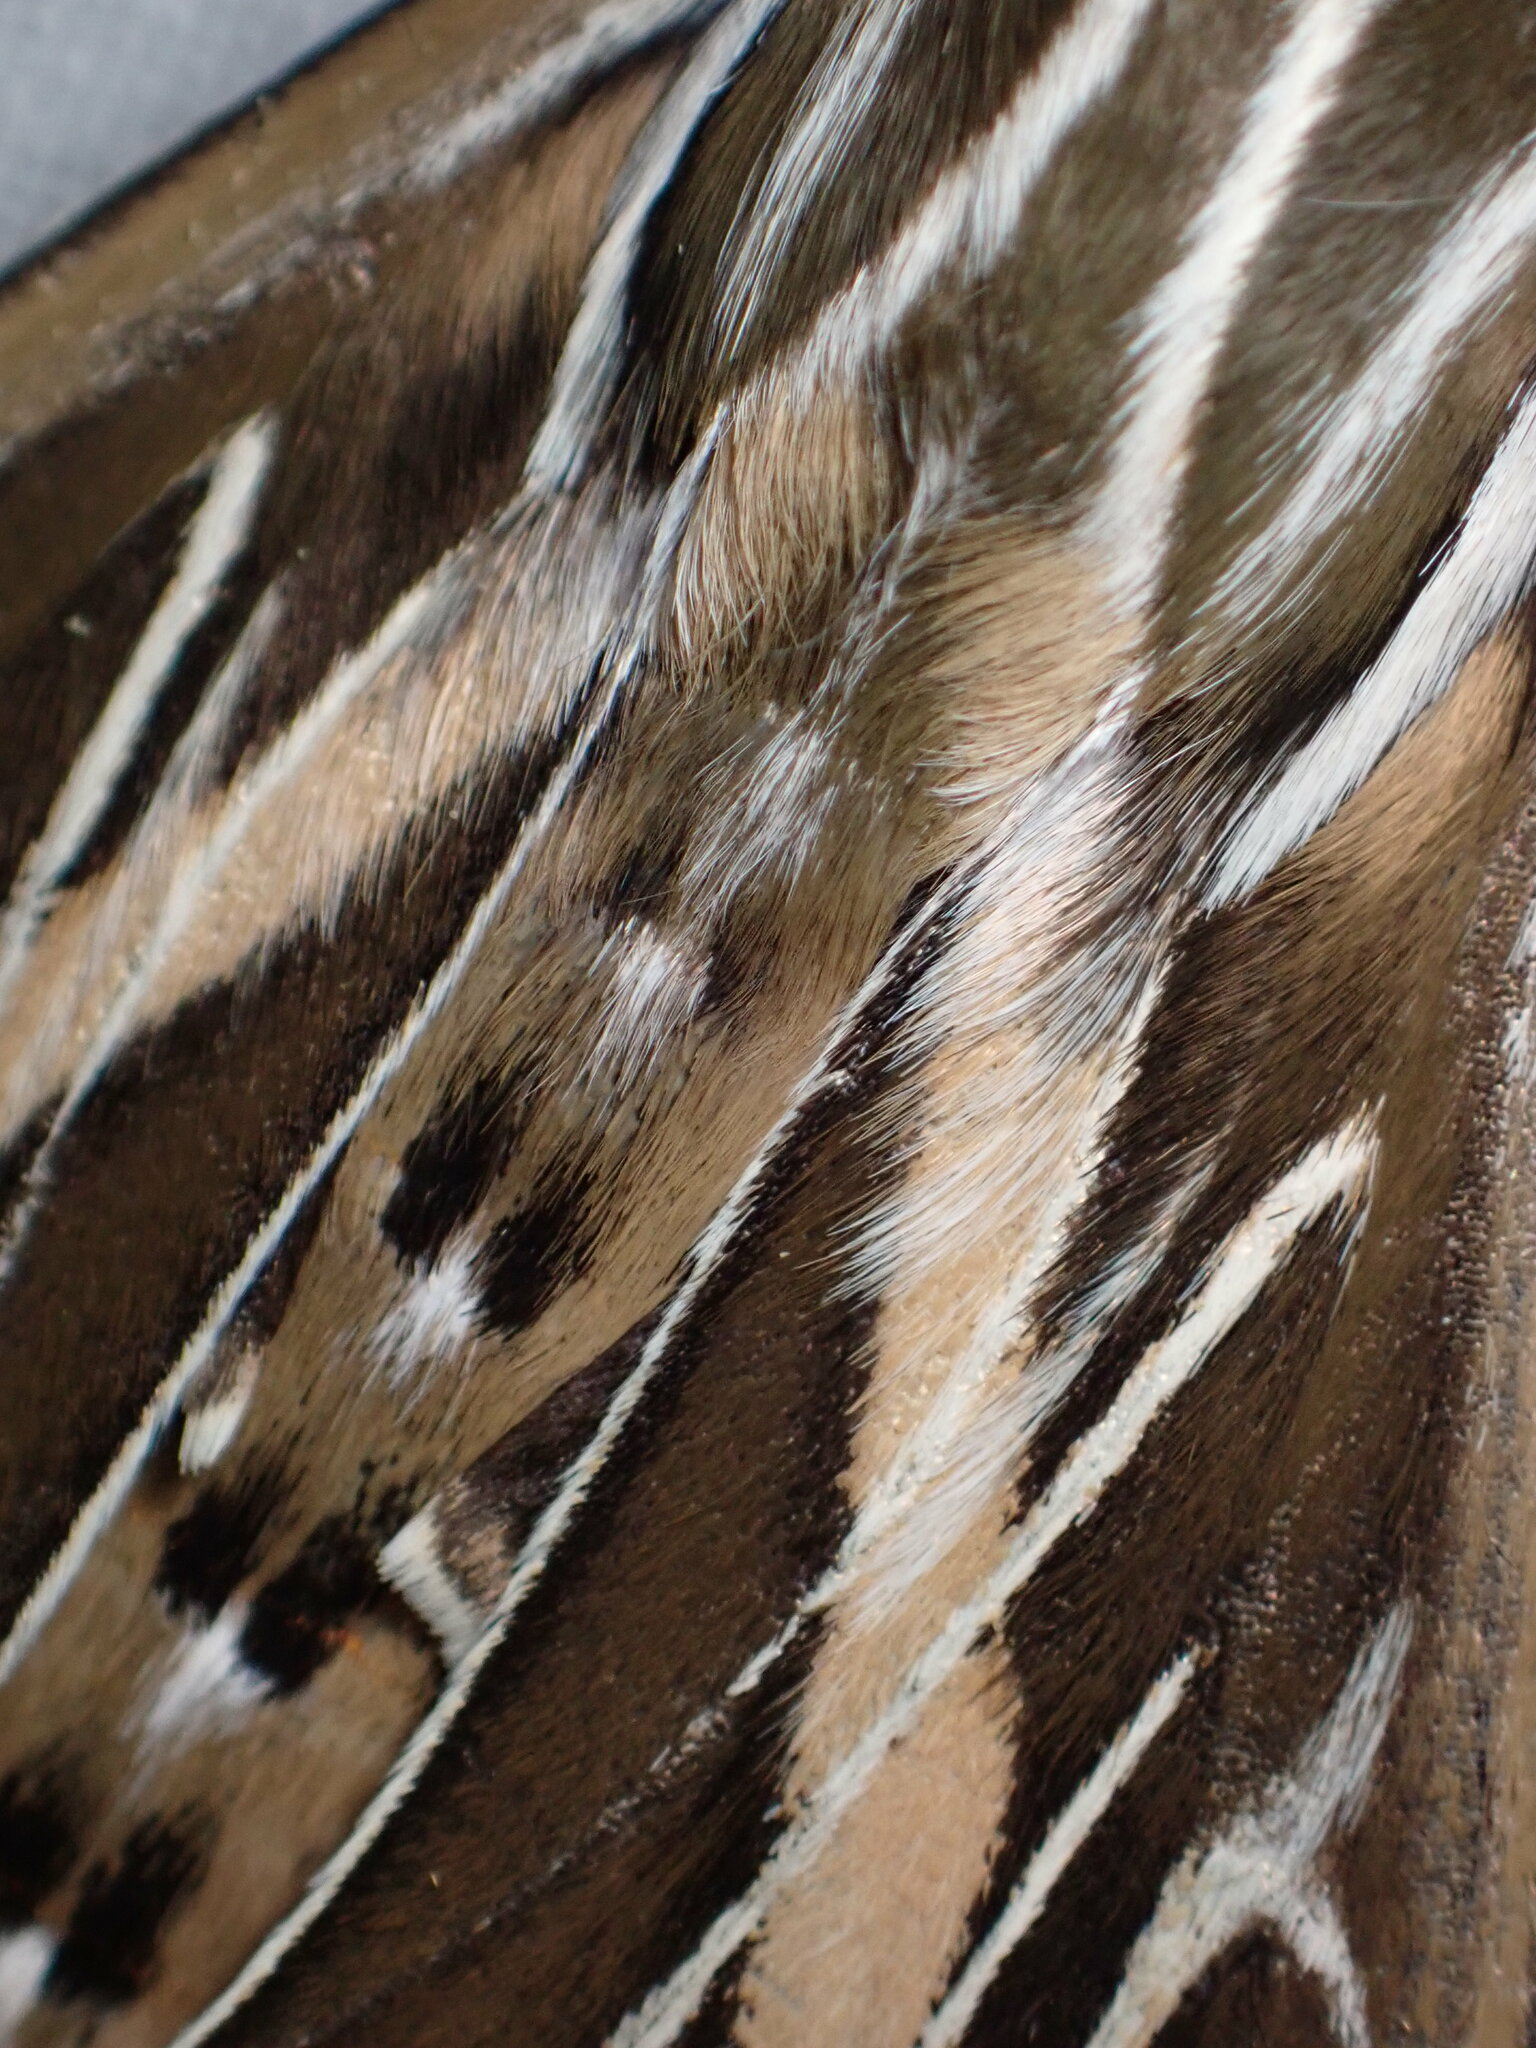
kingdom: Animalia
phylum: Arthropoda
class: Insecta
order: Lepidoptera
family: Sphingidae
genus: Hyles
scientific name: Hyles lineata
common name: White-lined sphinx
